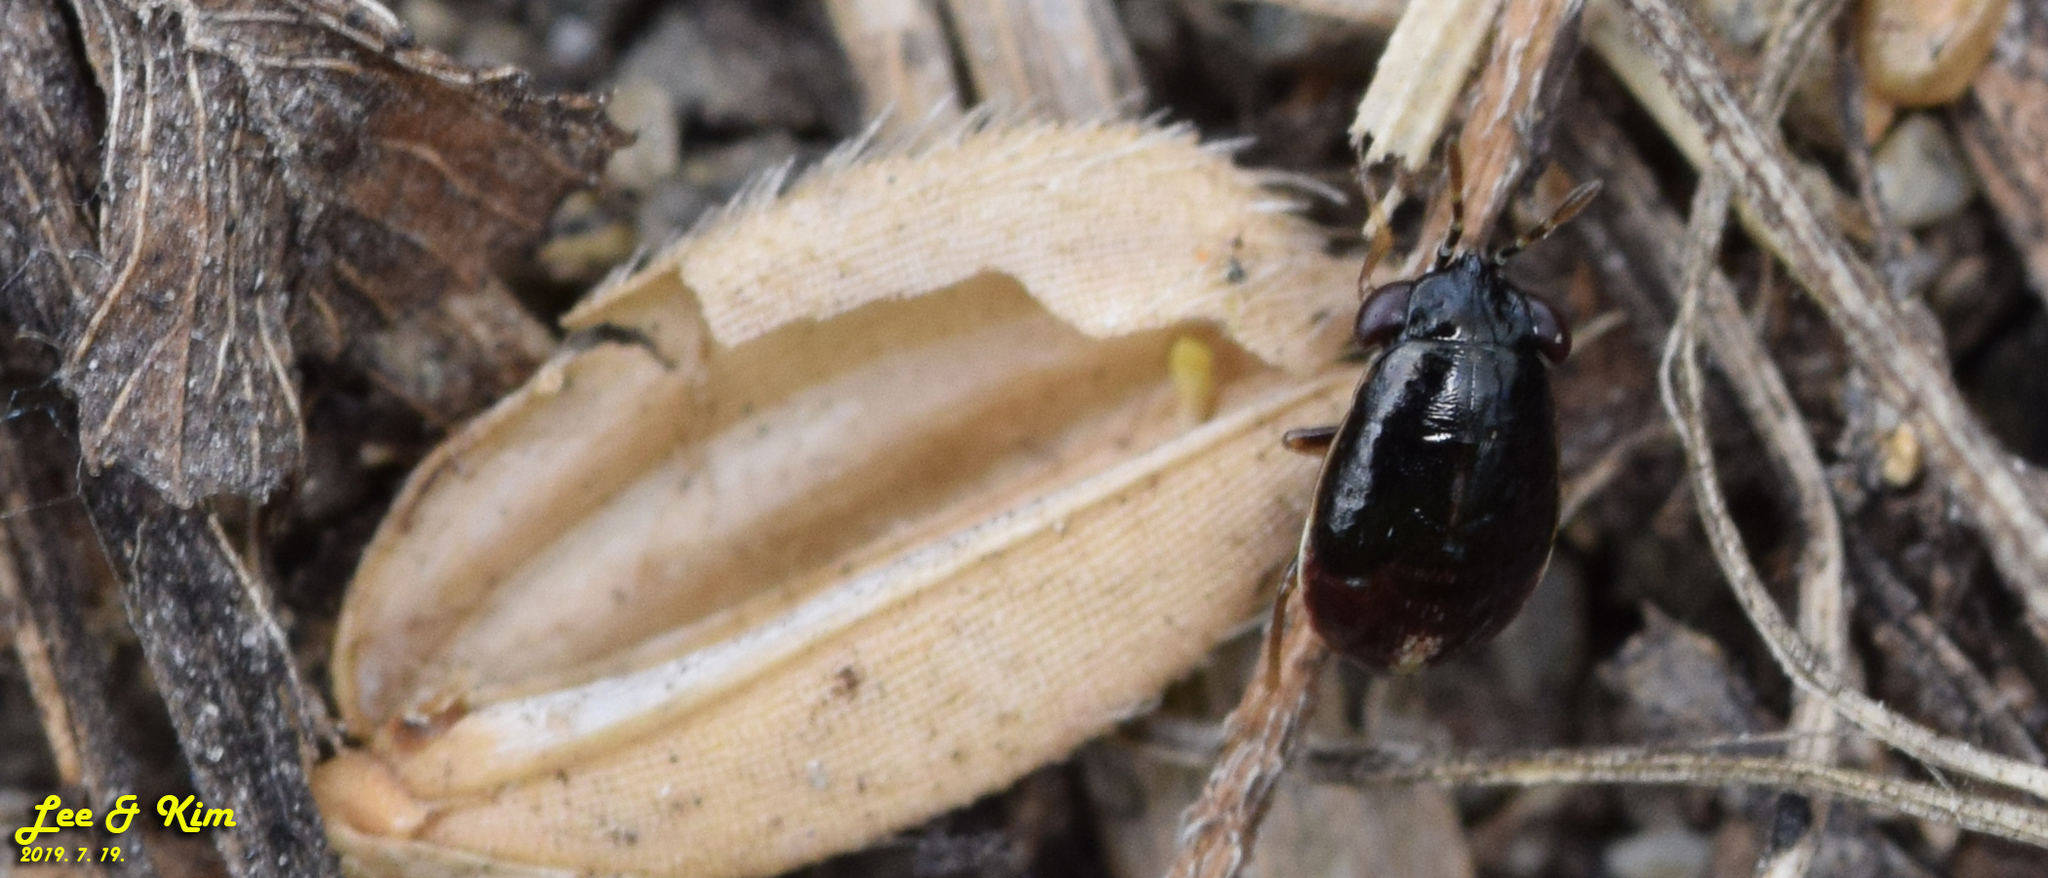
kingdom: Animalia
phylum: Arthropoda
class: Insecta
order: Hemiptera
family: Geocoridae
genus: Geocoris
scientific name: Geocoris pallidipennis
